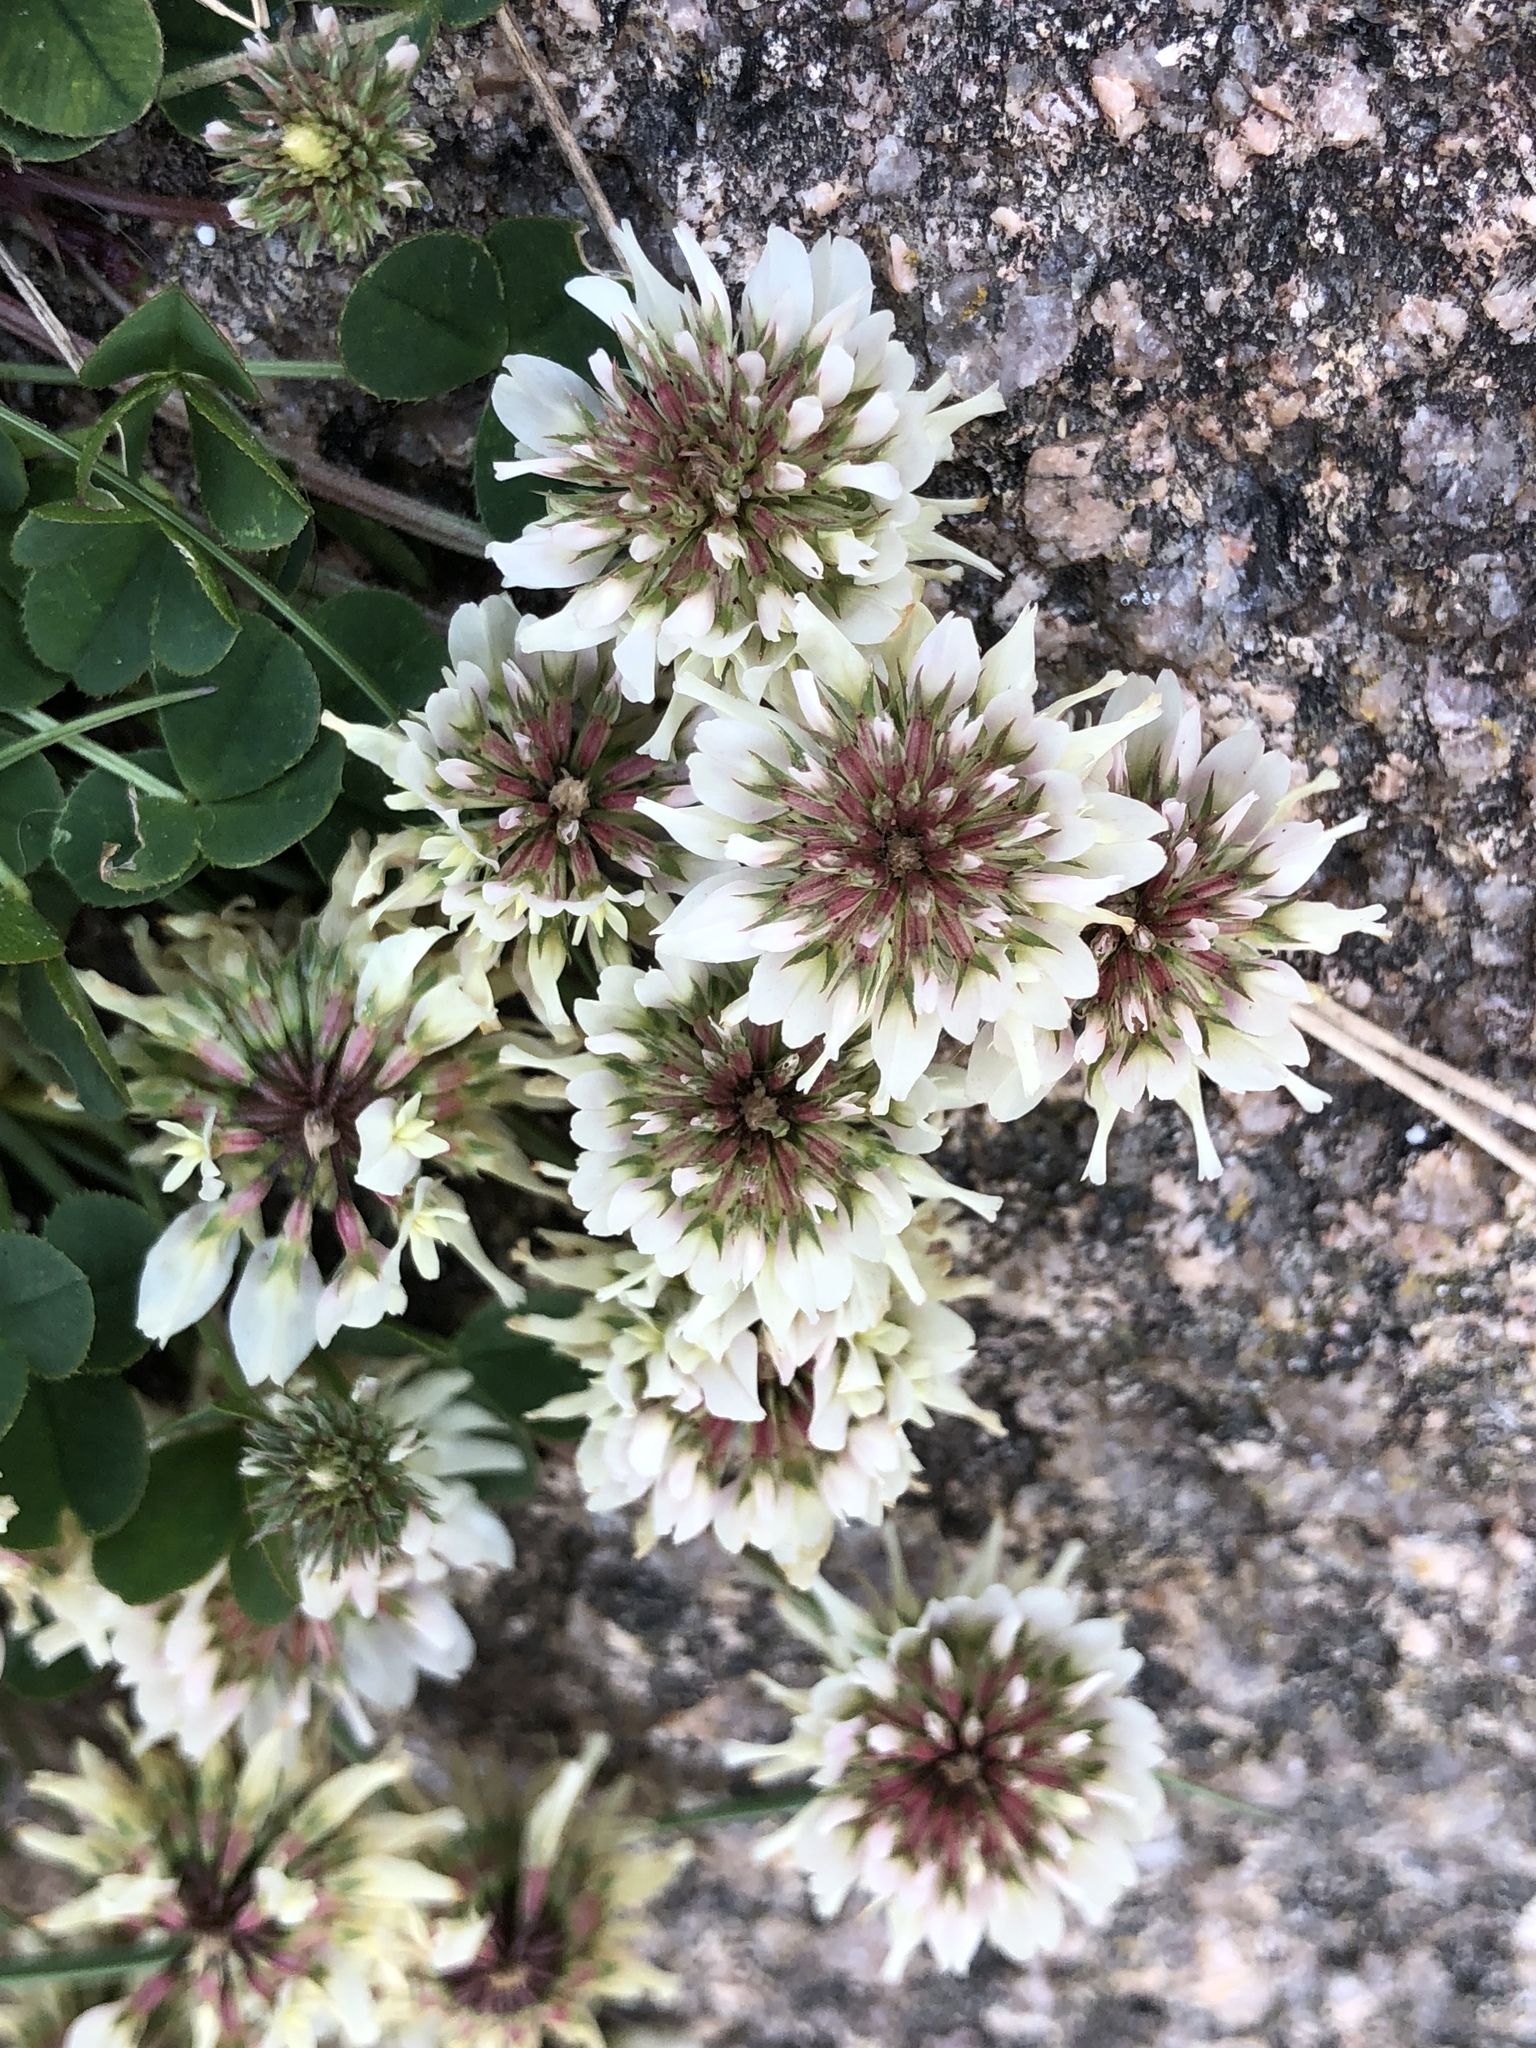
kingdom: Plantae
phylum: Tracheophyta
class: Magnoliopsida
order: Fabales
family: Fabaceae
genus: Trifolium
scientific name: Trifolium repens
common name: White clover
